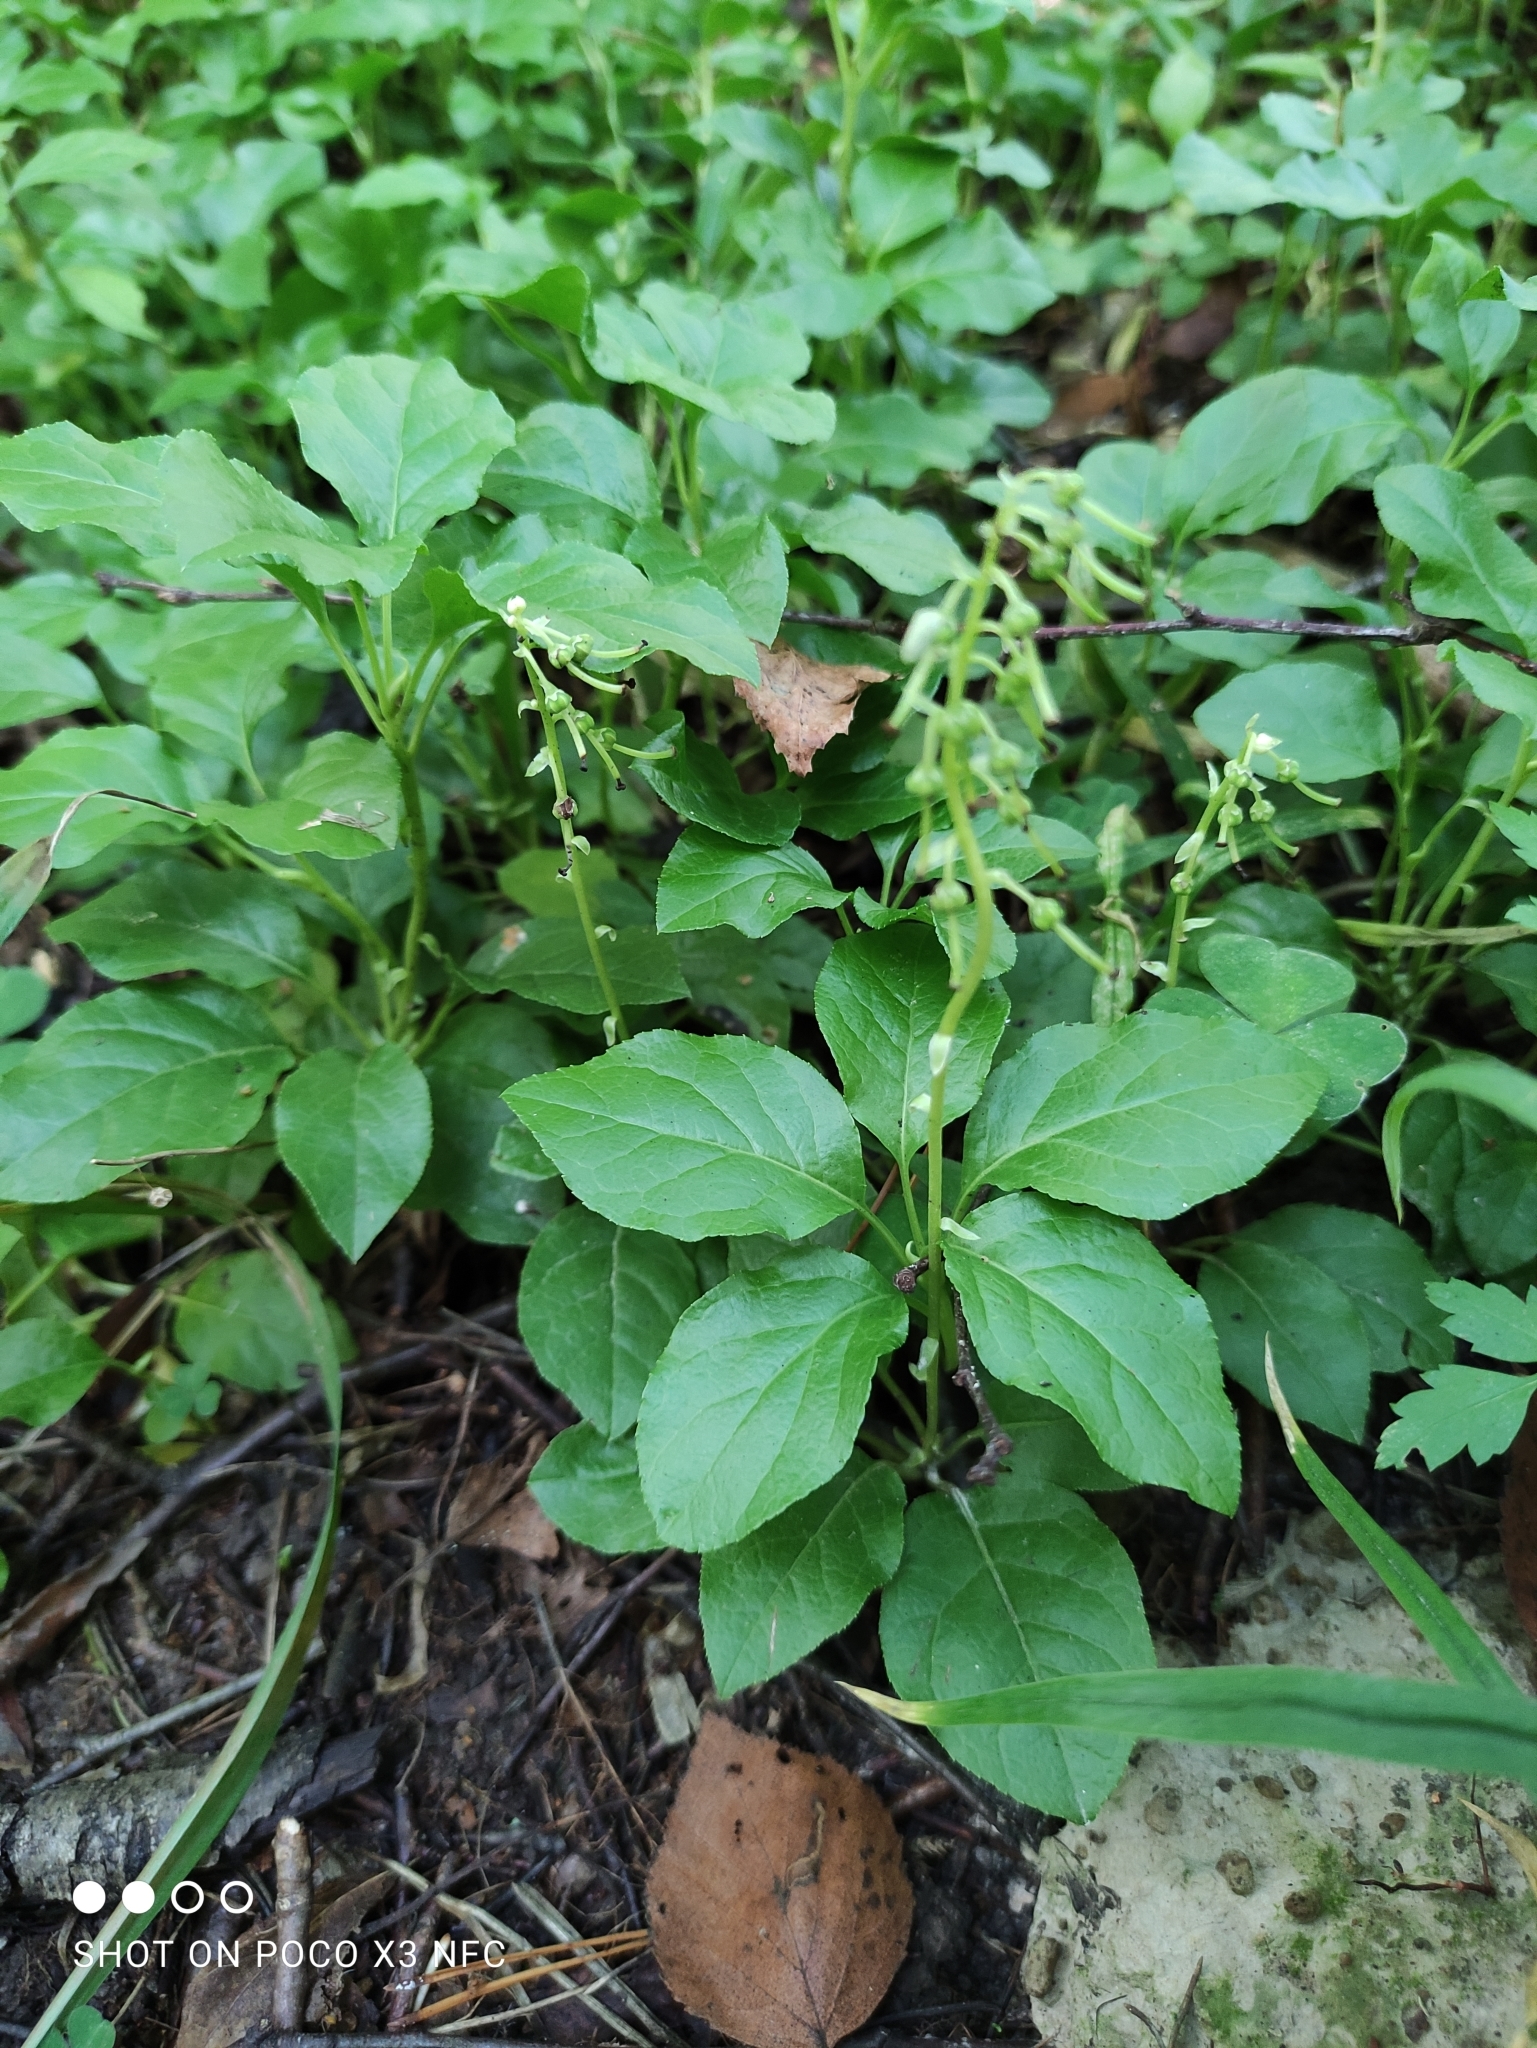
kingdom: Plantae
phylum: Tracheophyta
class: Magnoliopsida
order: Ericales
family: Ericaceae
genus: Orthilia
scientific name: Orthilia secunda
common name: One-sided orthilia
